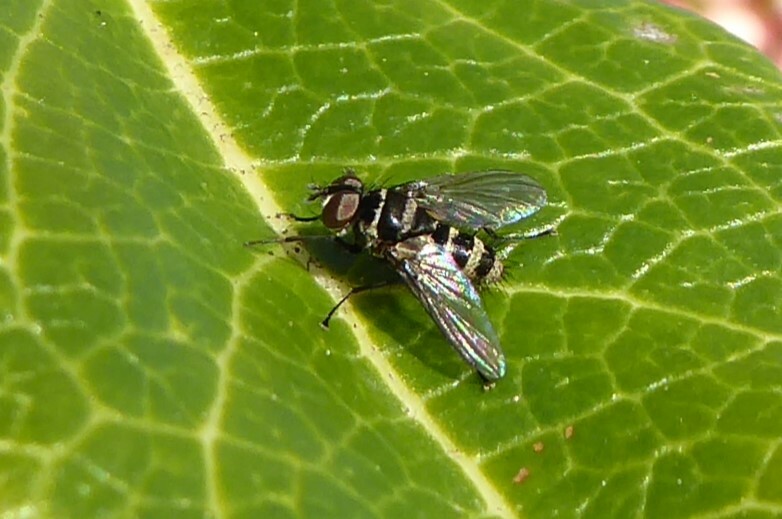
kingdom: Animalia
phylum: Arthropoda
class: Insecta
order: Diptera
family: Tachinidae
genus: Trigonospila
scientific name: Trigonospila brevifacies
